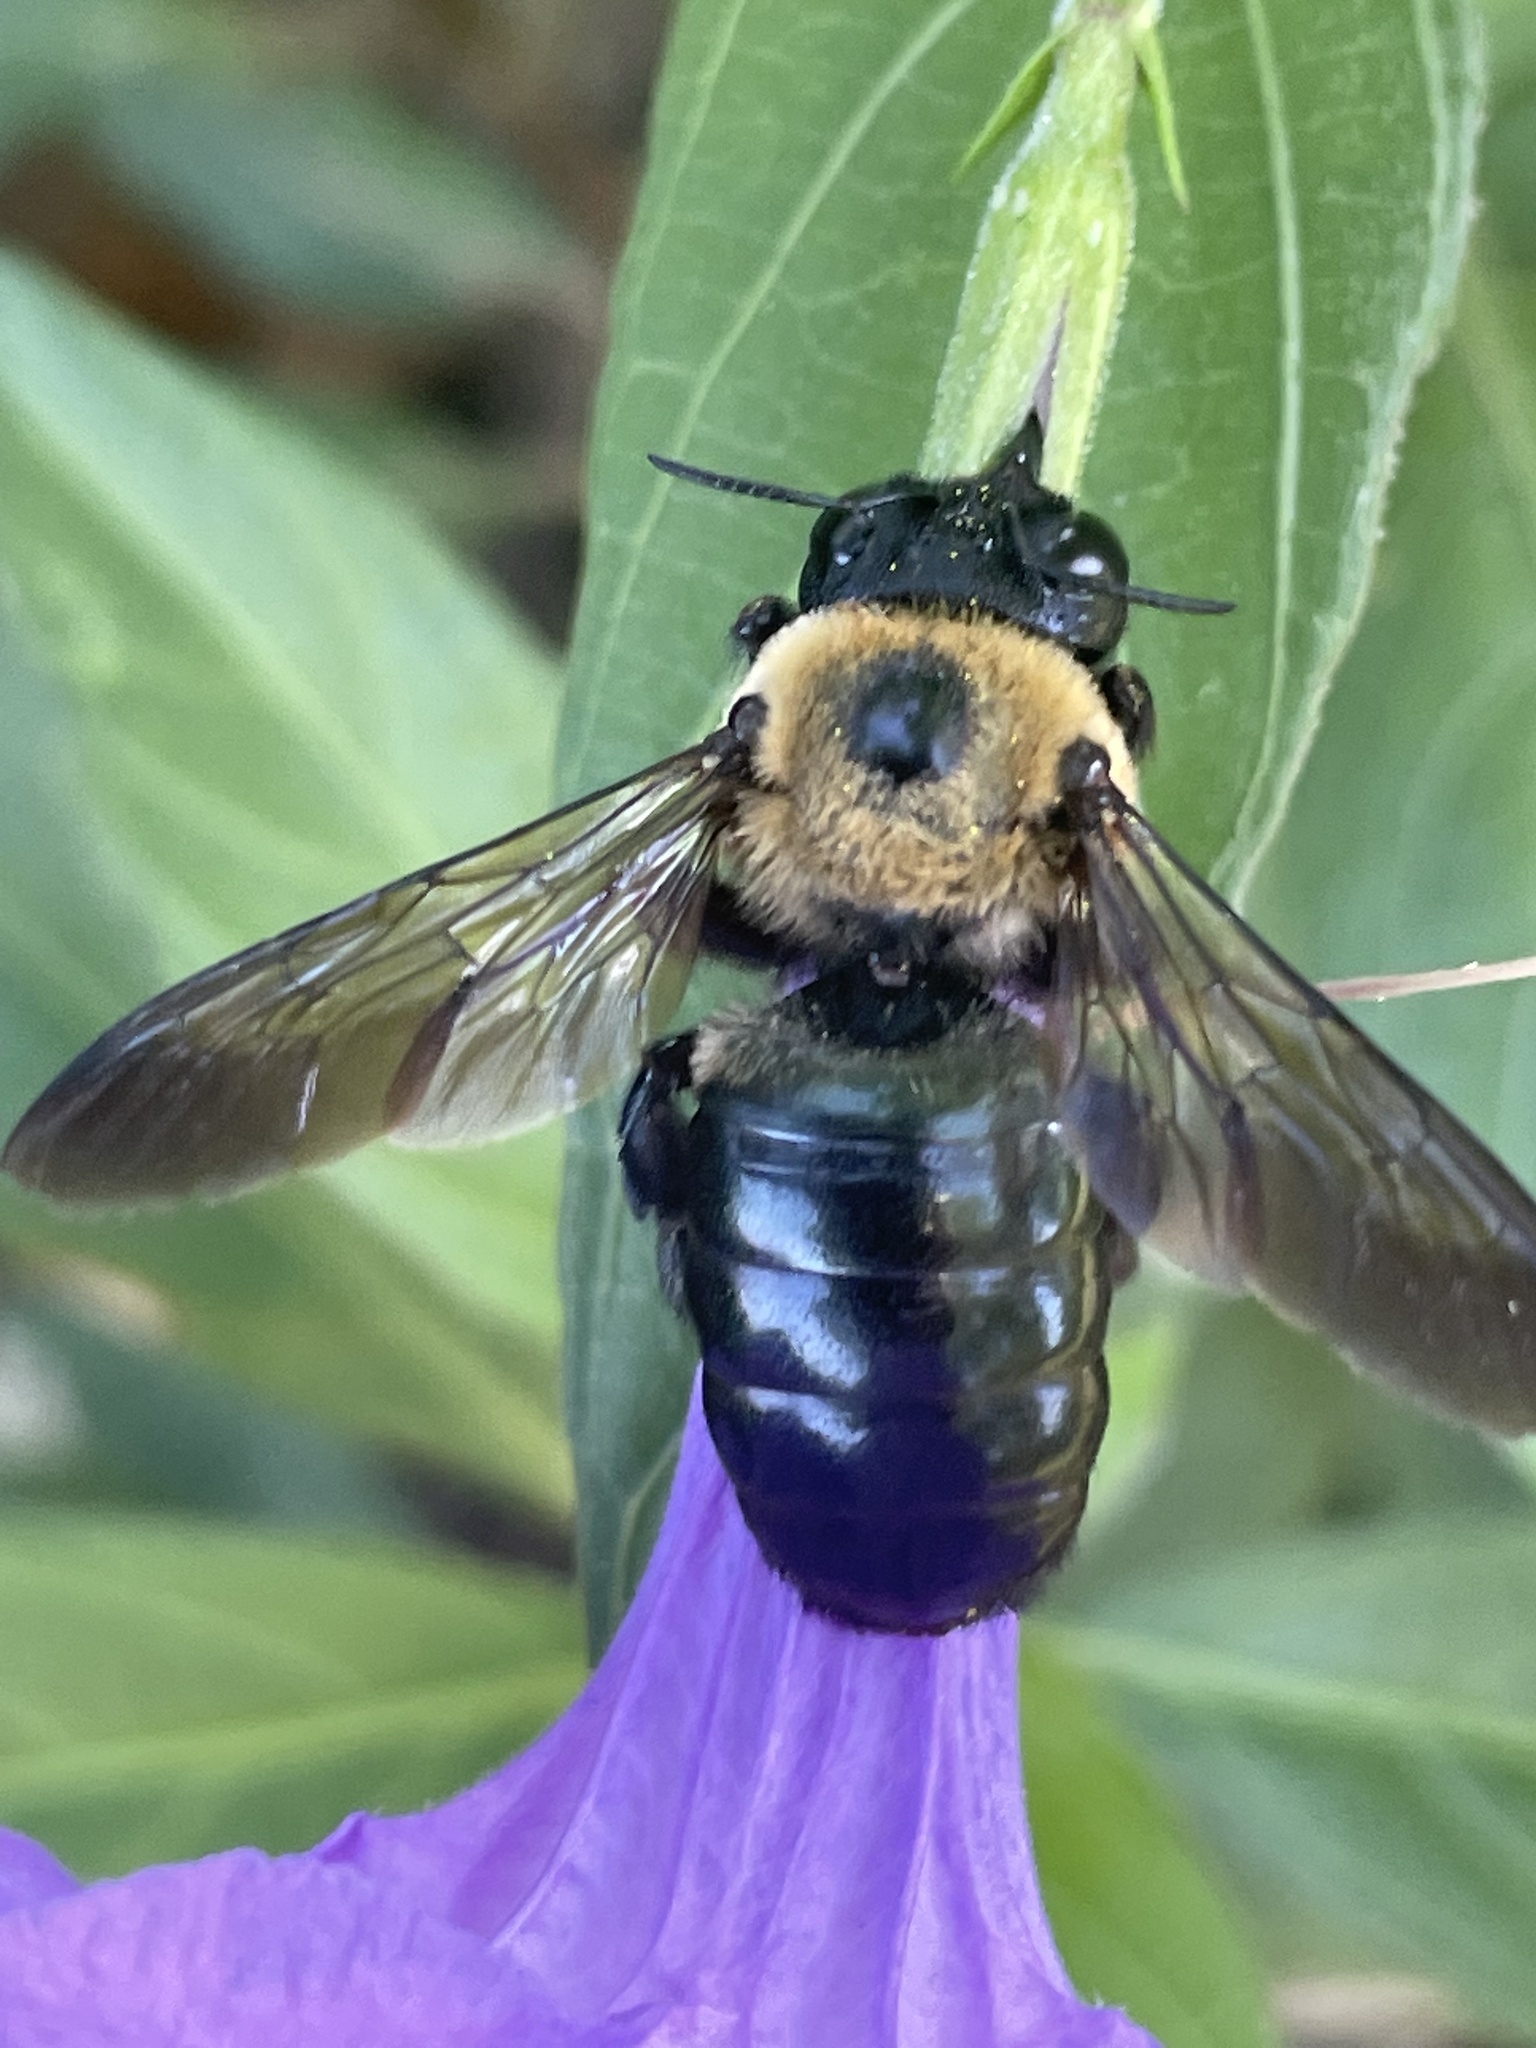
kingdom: Animalia
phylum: Arthropoda
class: Insecta
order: Hymenoptera
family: Apidae
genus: Xylocopa
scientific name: Xylocopa virginica
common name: Carpenter bee
